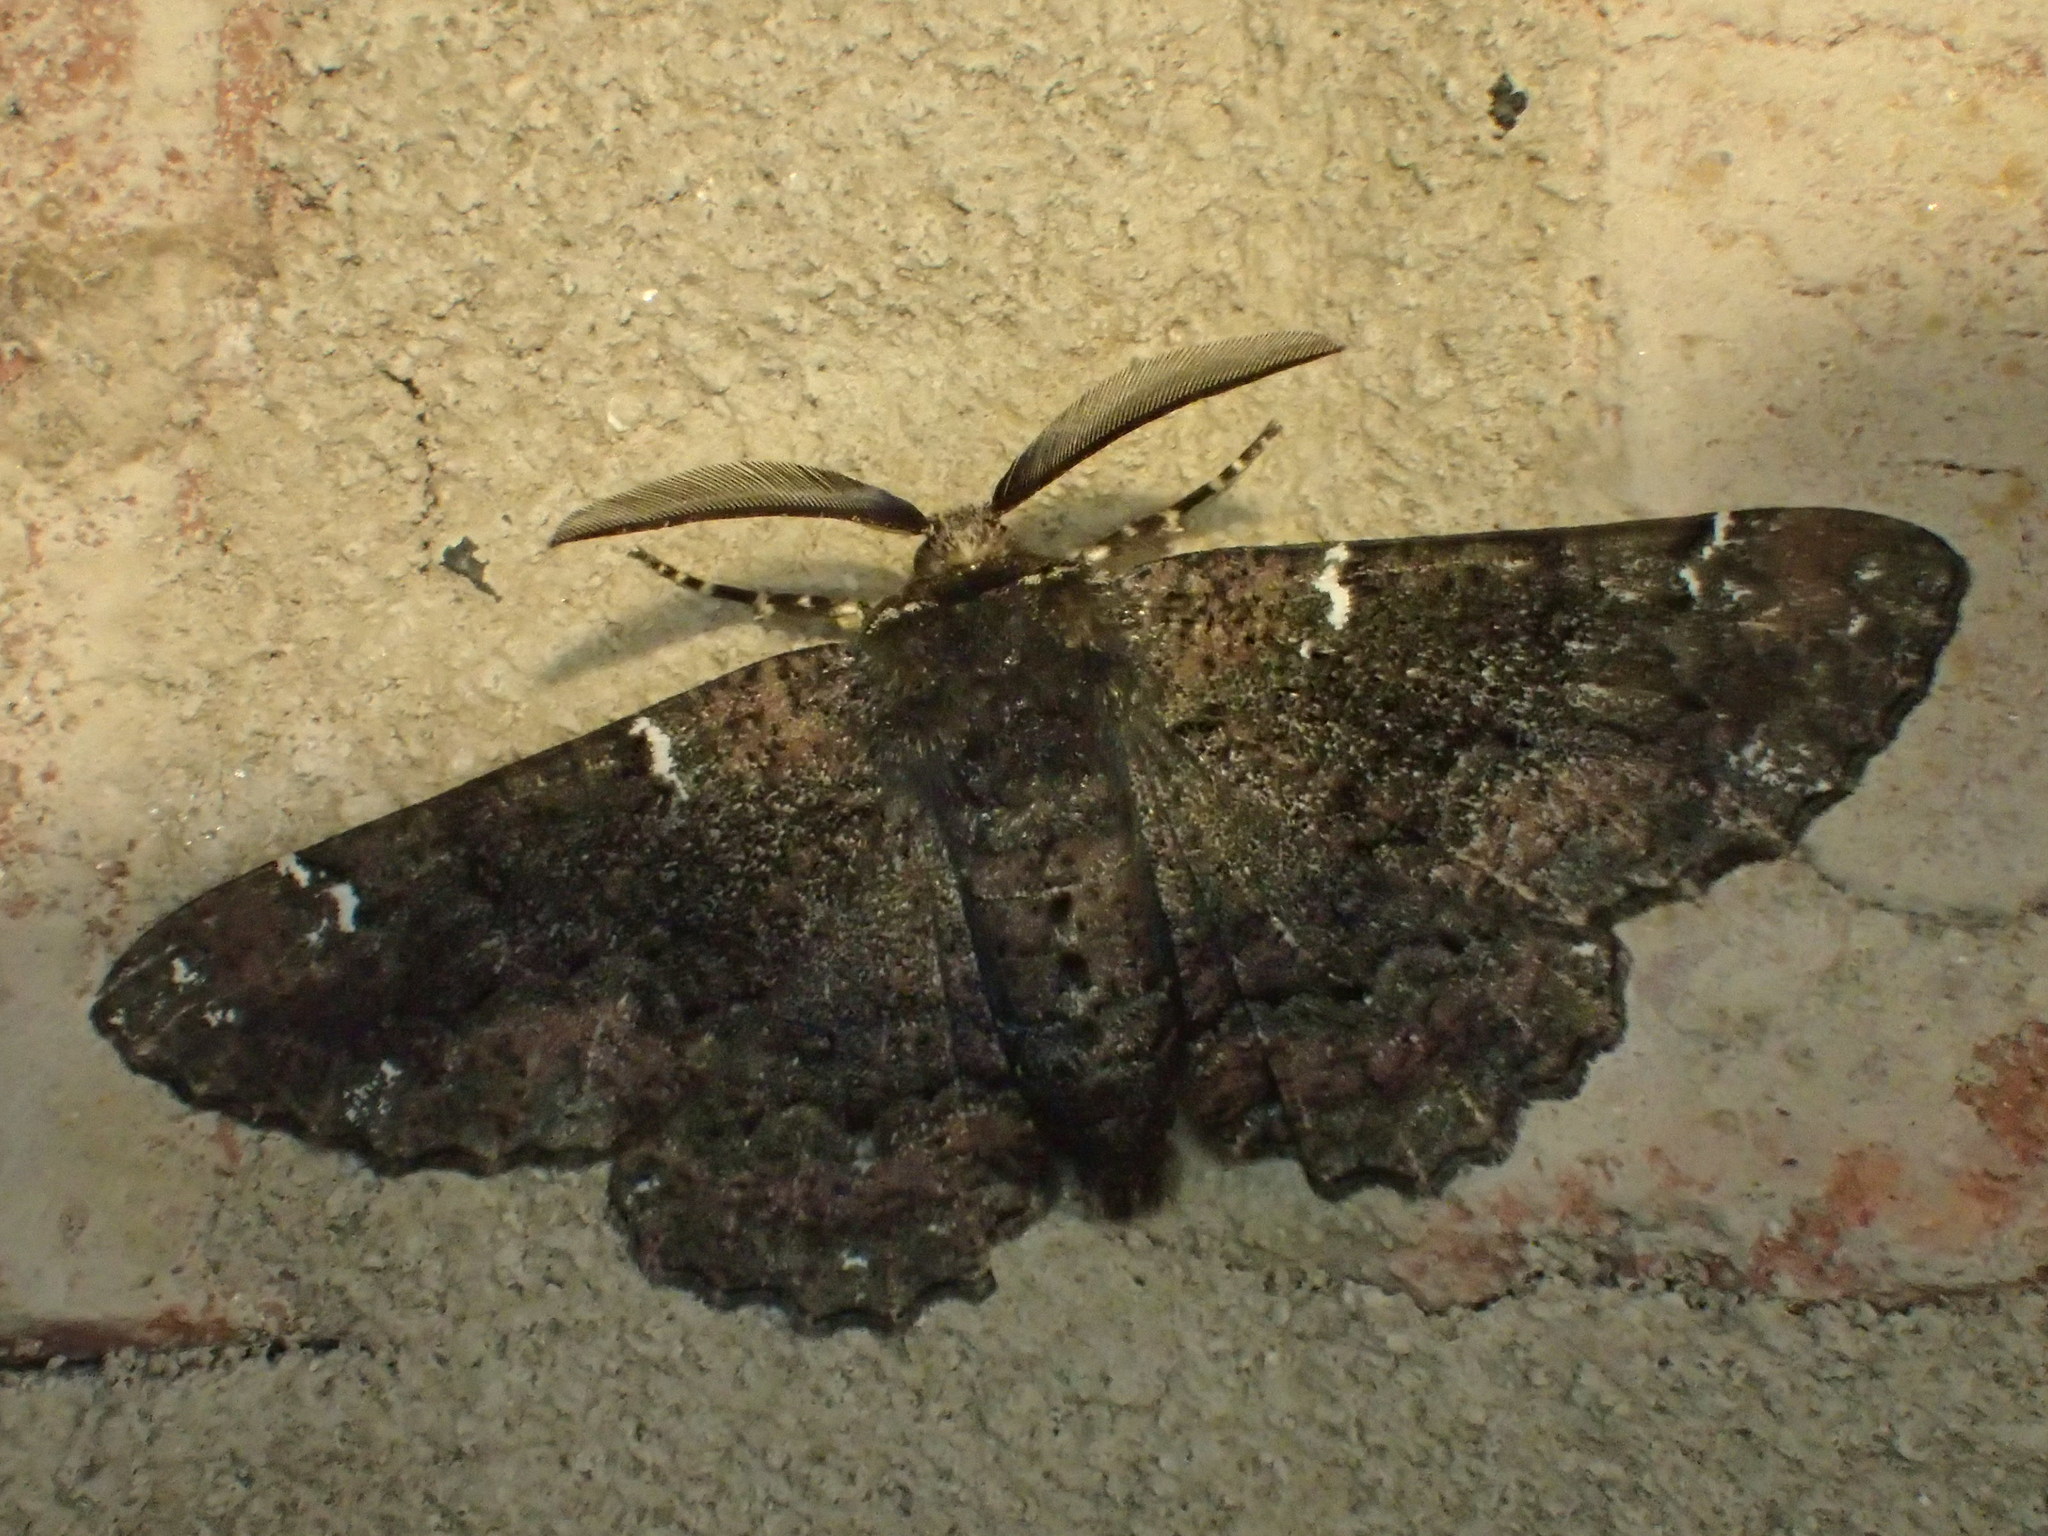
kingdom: Animalia
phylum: Arthropoda
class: Insecta
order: Lepidoptera
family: Geometridae
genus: Phaeoura
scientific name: Phaeoura quernaria
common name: Oak beauty
